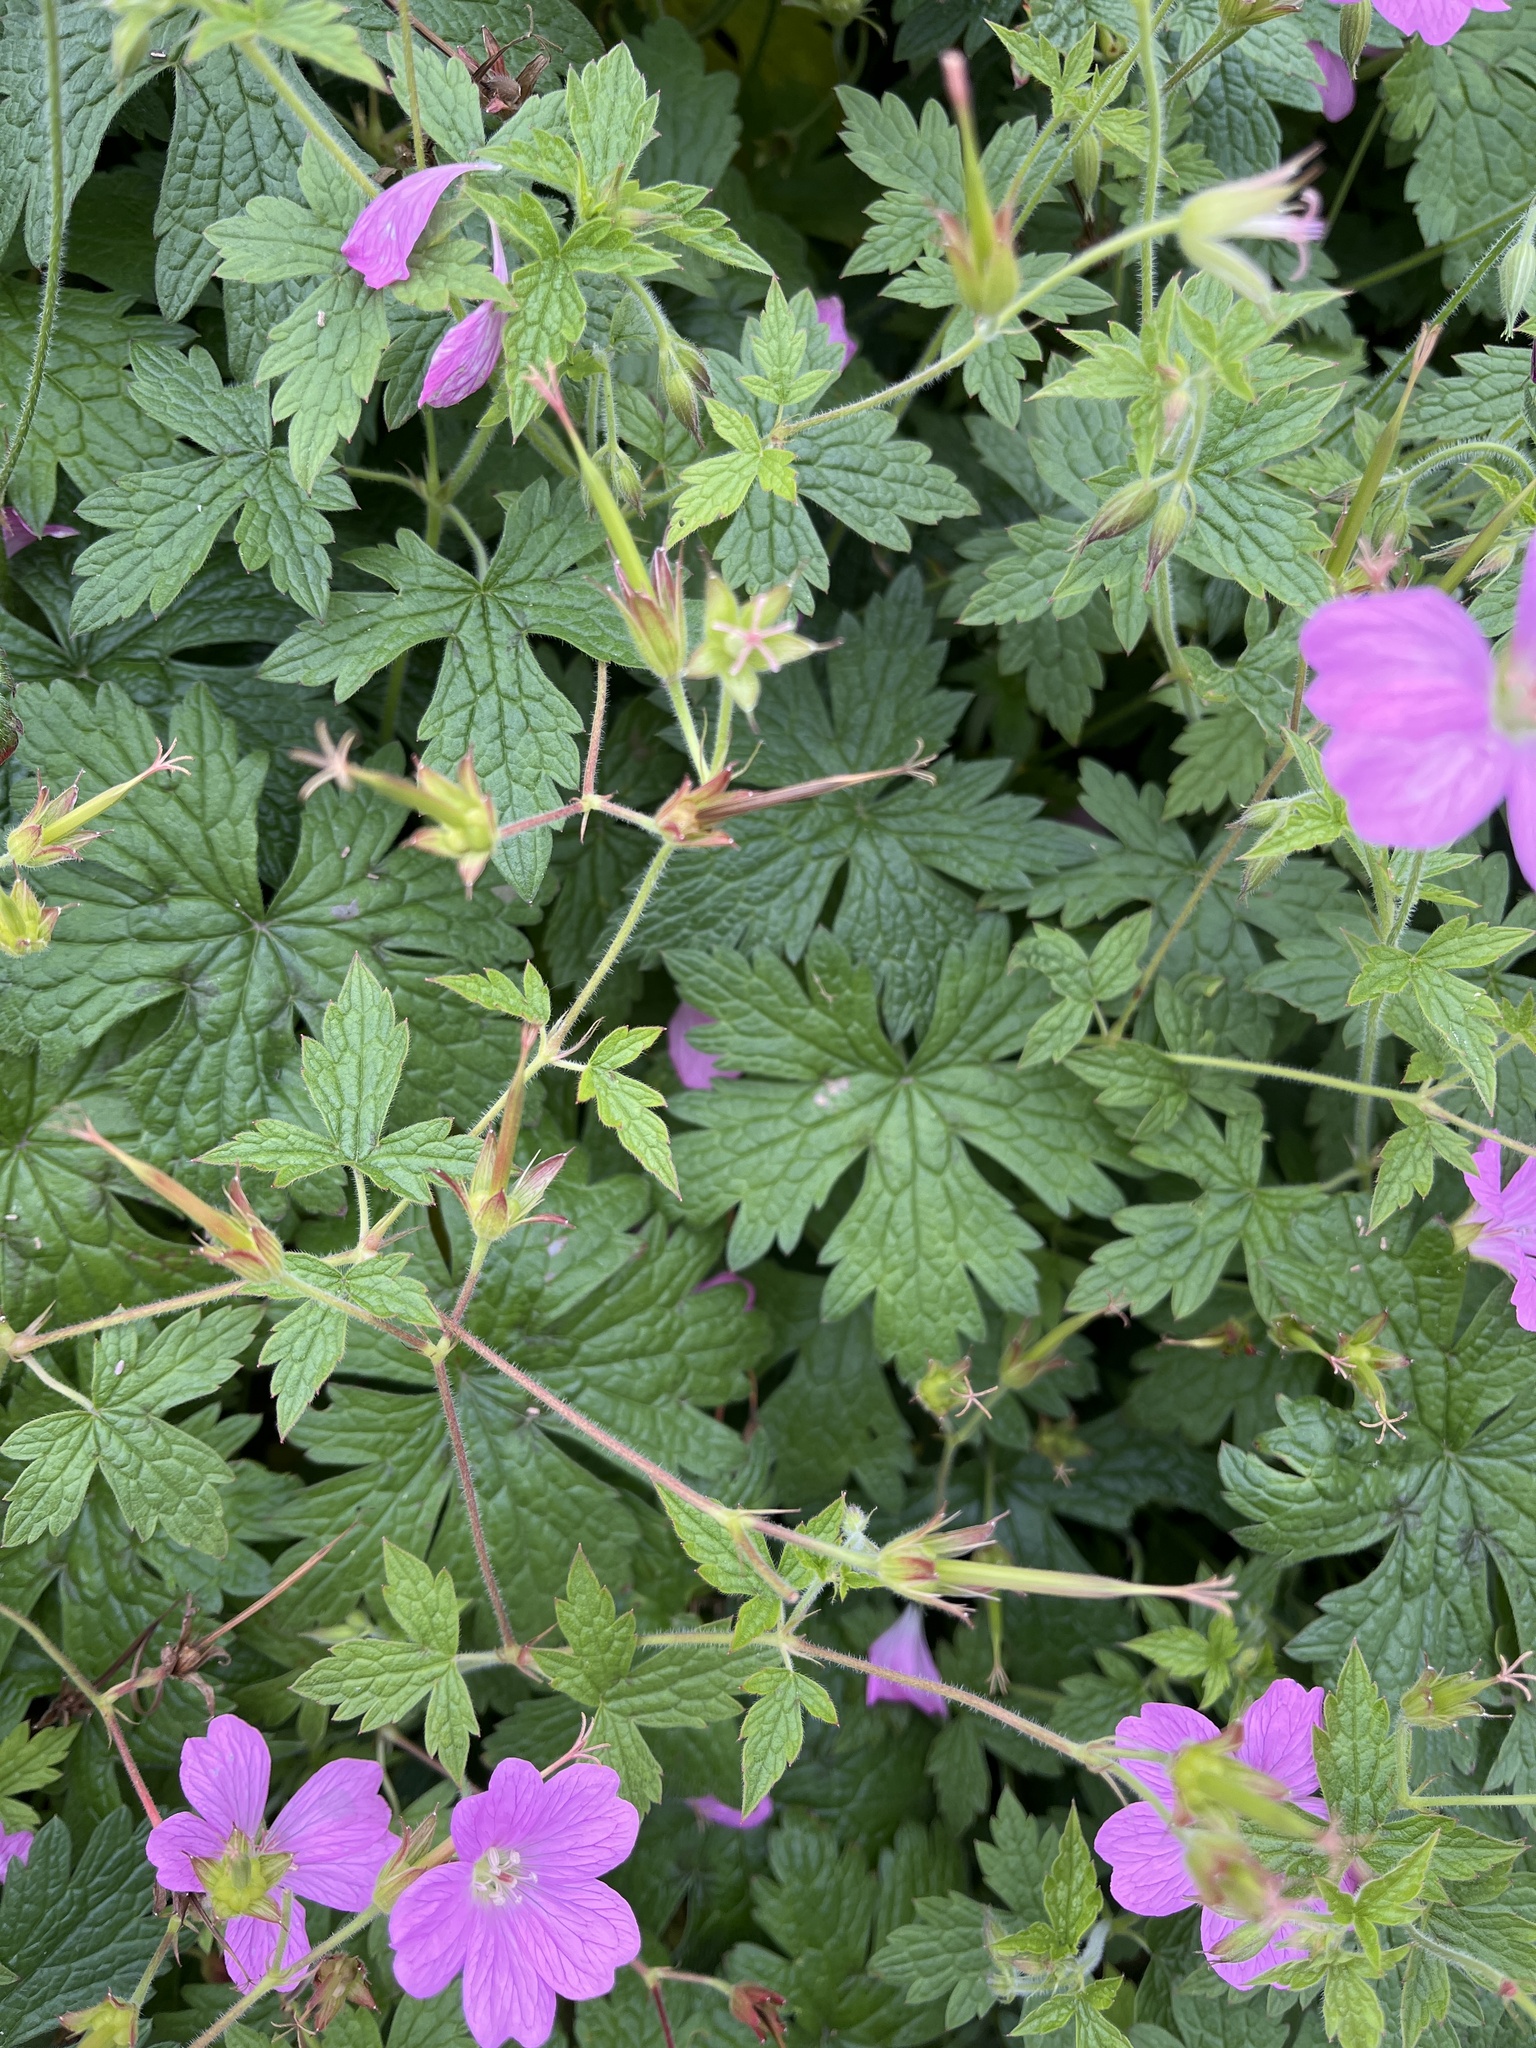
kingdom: Plantae
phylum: Tracheophyta
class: Magnoliopsida
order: Geraniales
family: Geraniaceae
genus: Geranium
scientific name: Geranium oxonianum
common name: Druce's crane's-bill
